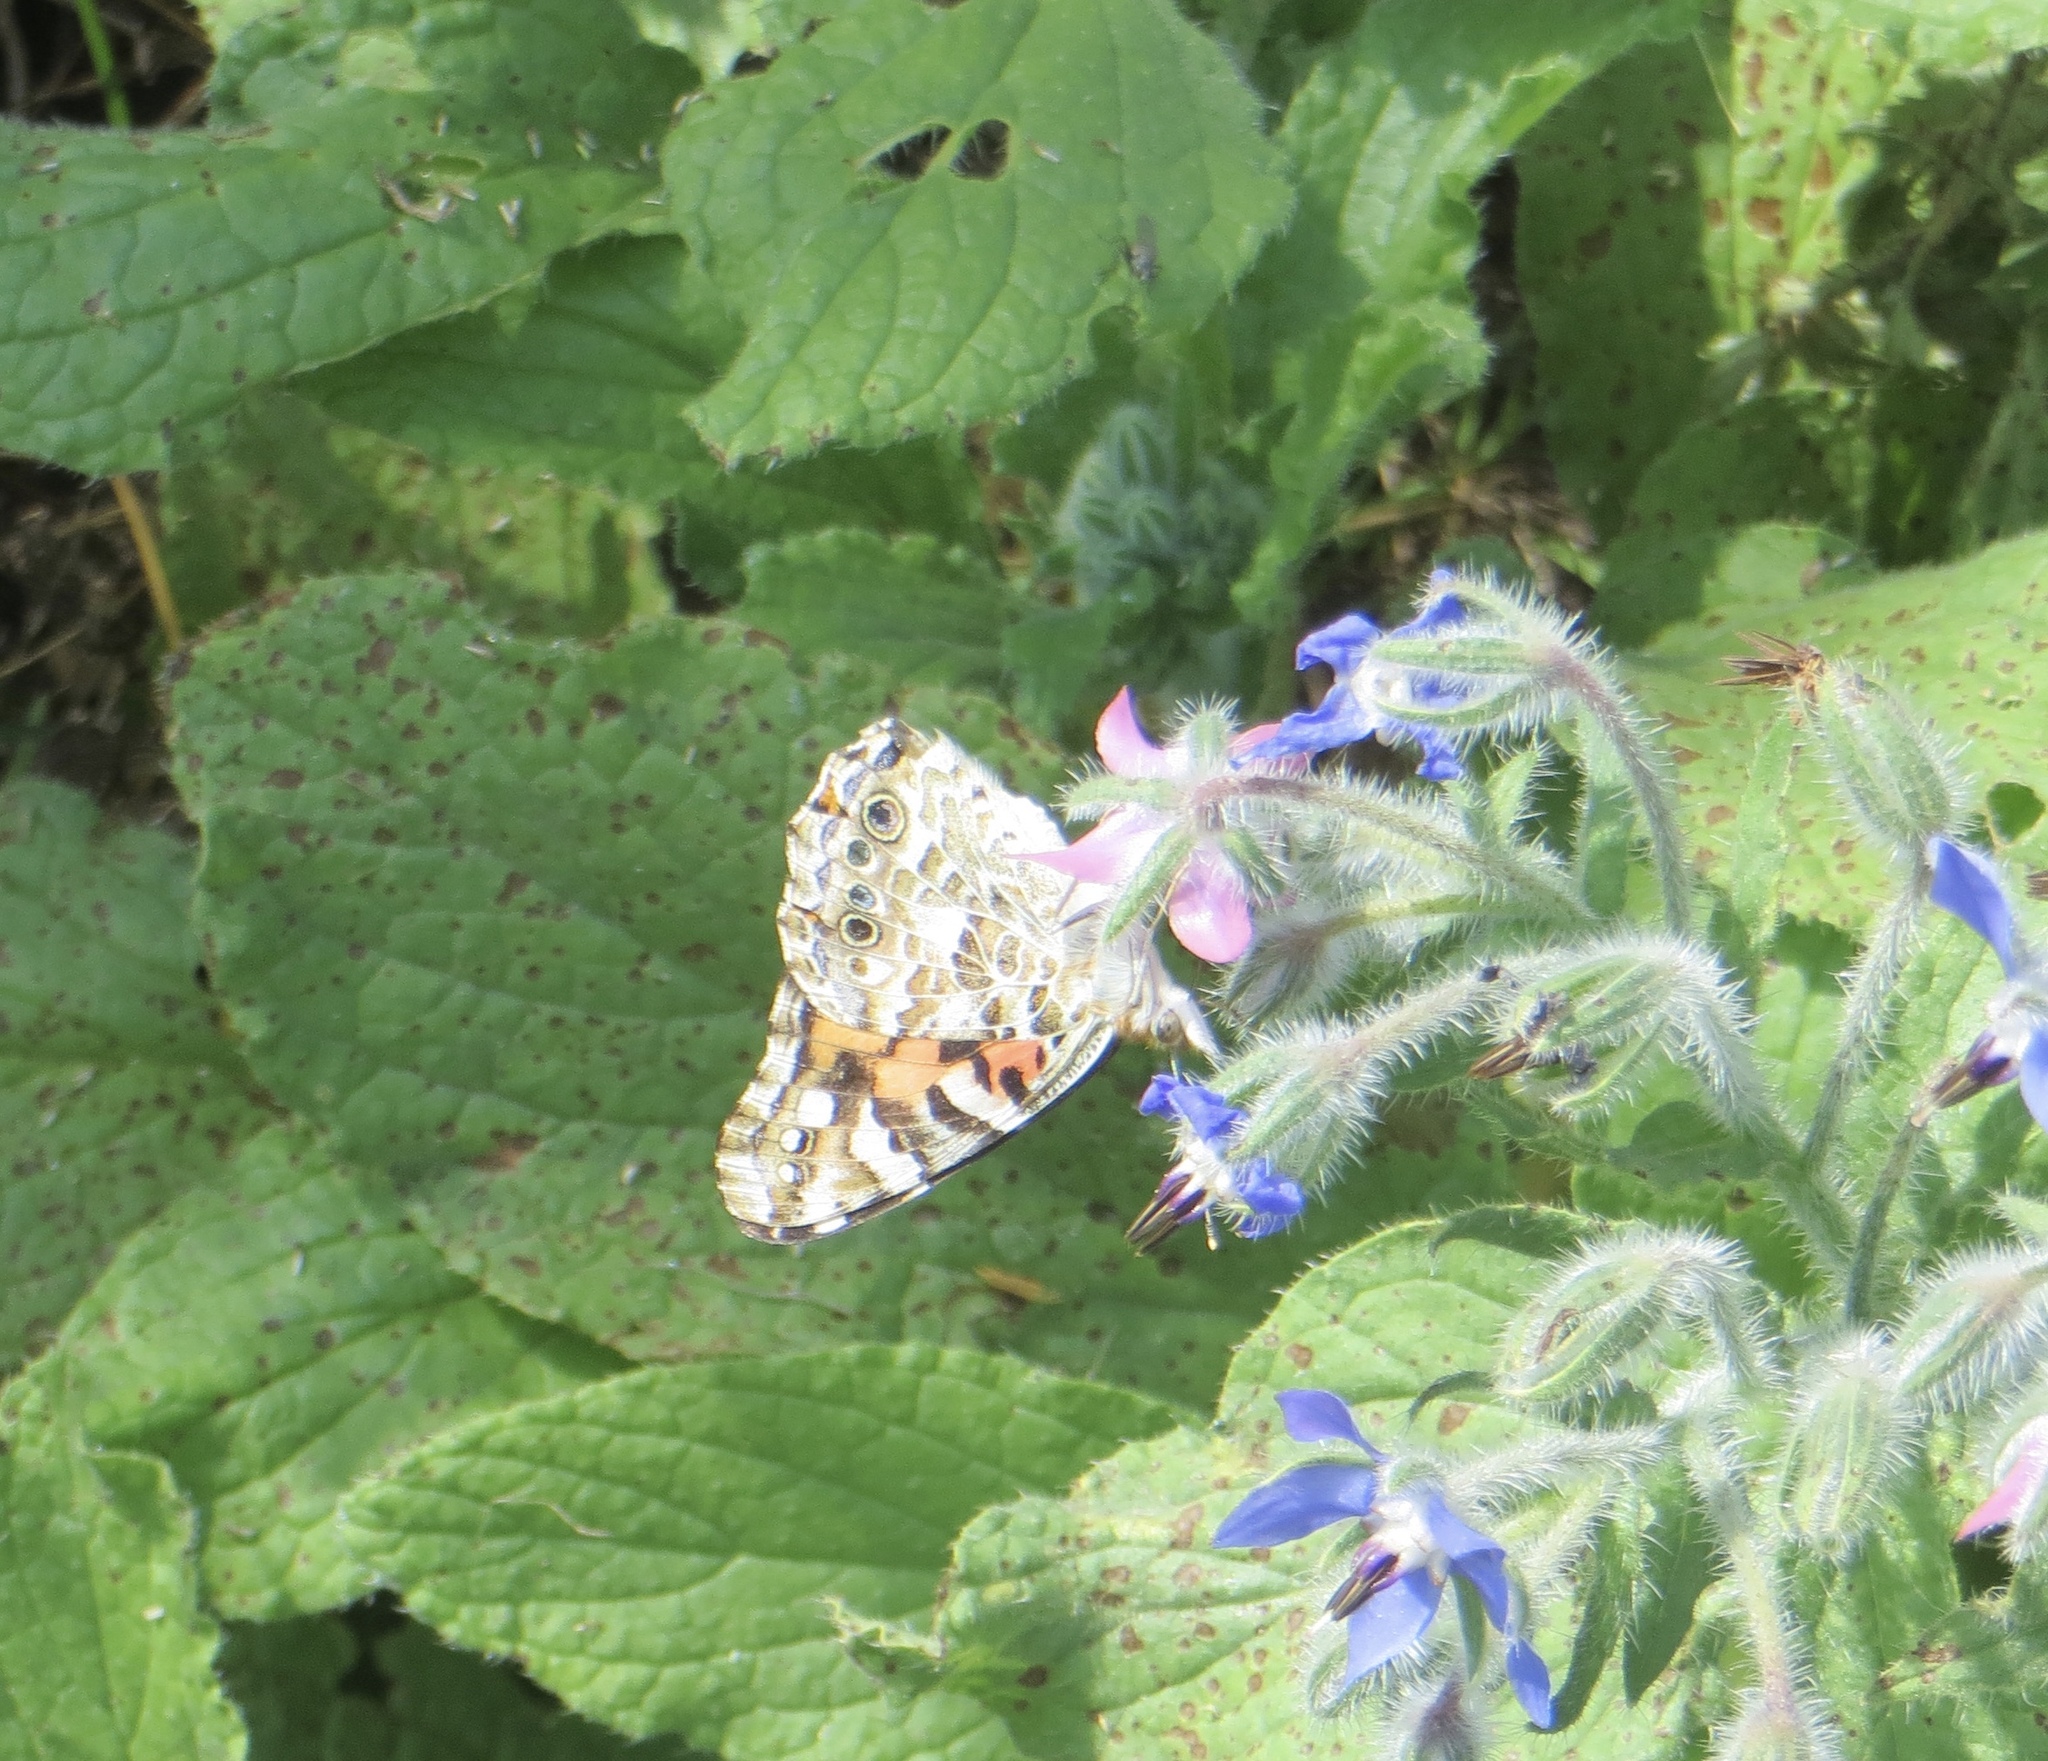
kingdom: Animalia
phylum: Arthropoda
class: Insecta
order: Lepidoptera
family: Nymphalidae
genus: Vanessa
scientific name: Vanessa cardui
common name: Painted lady
